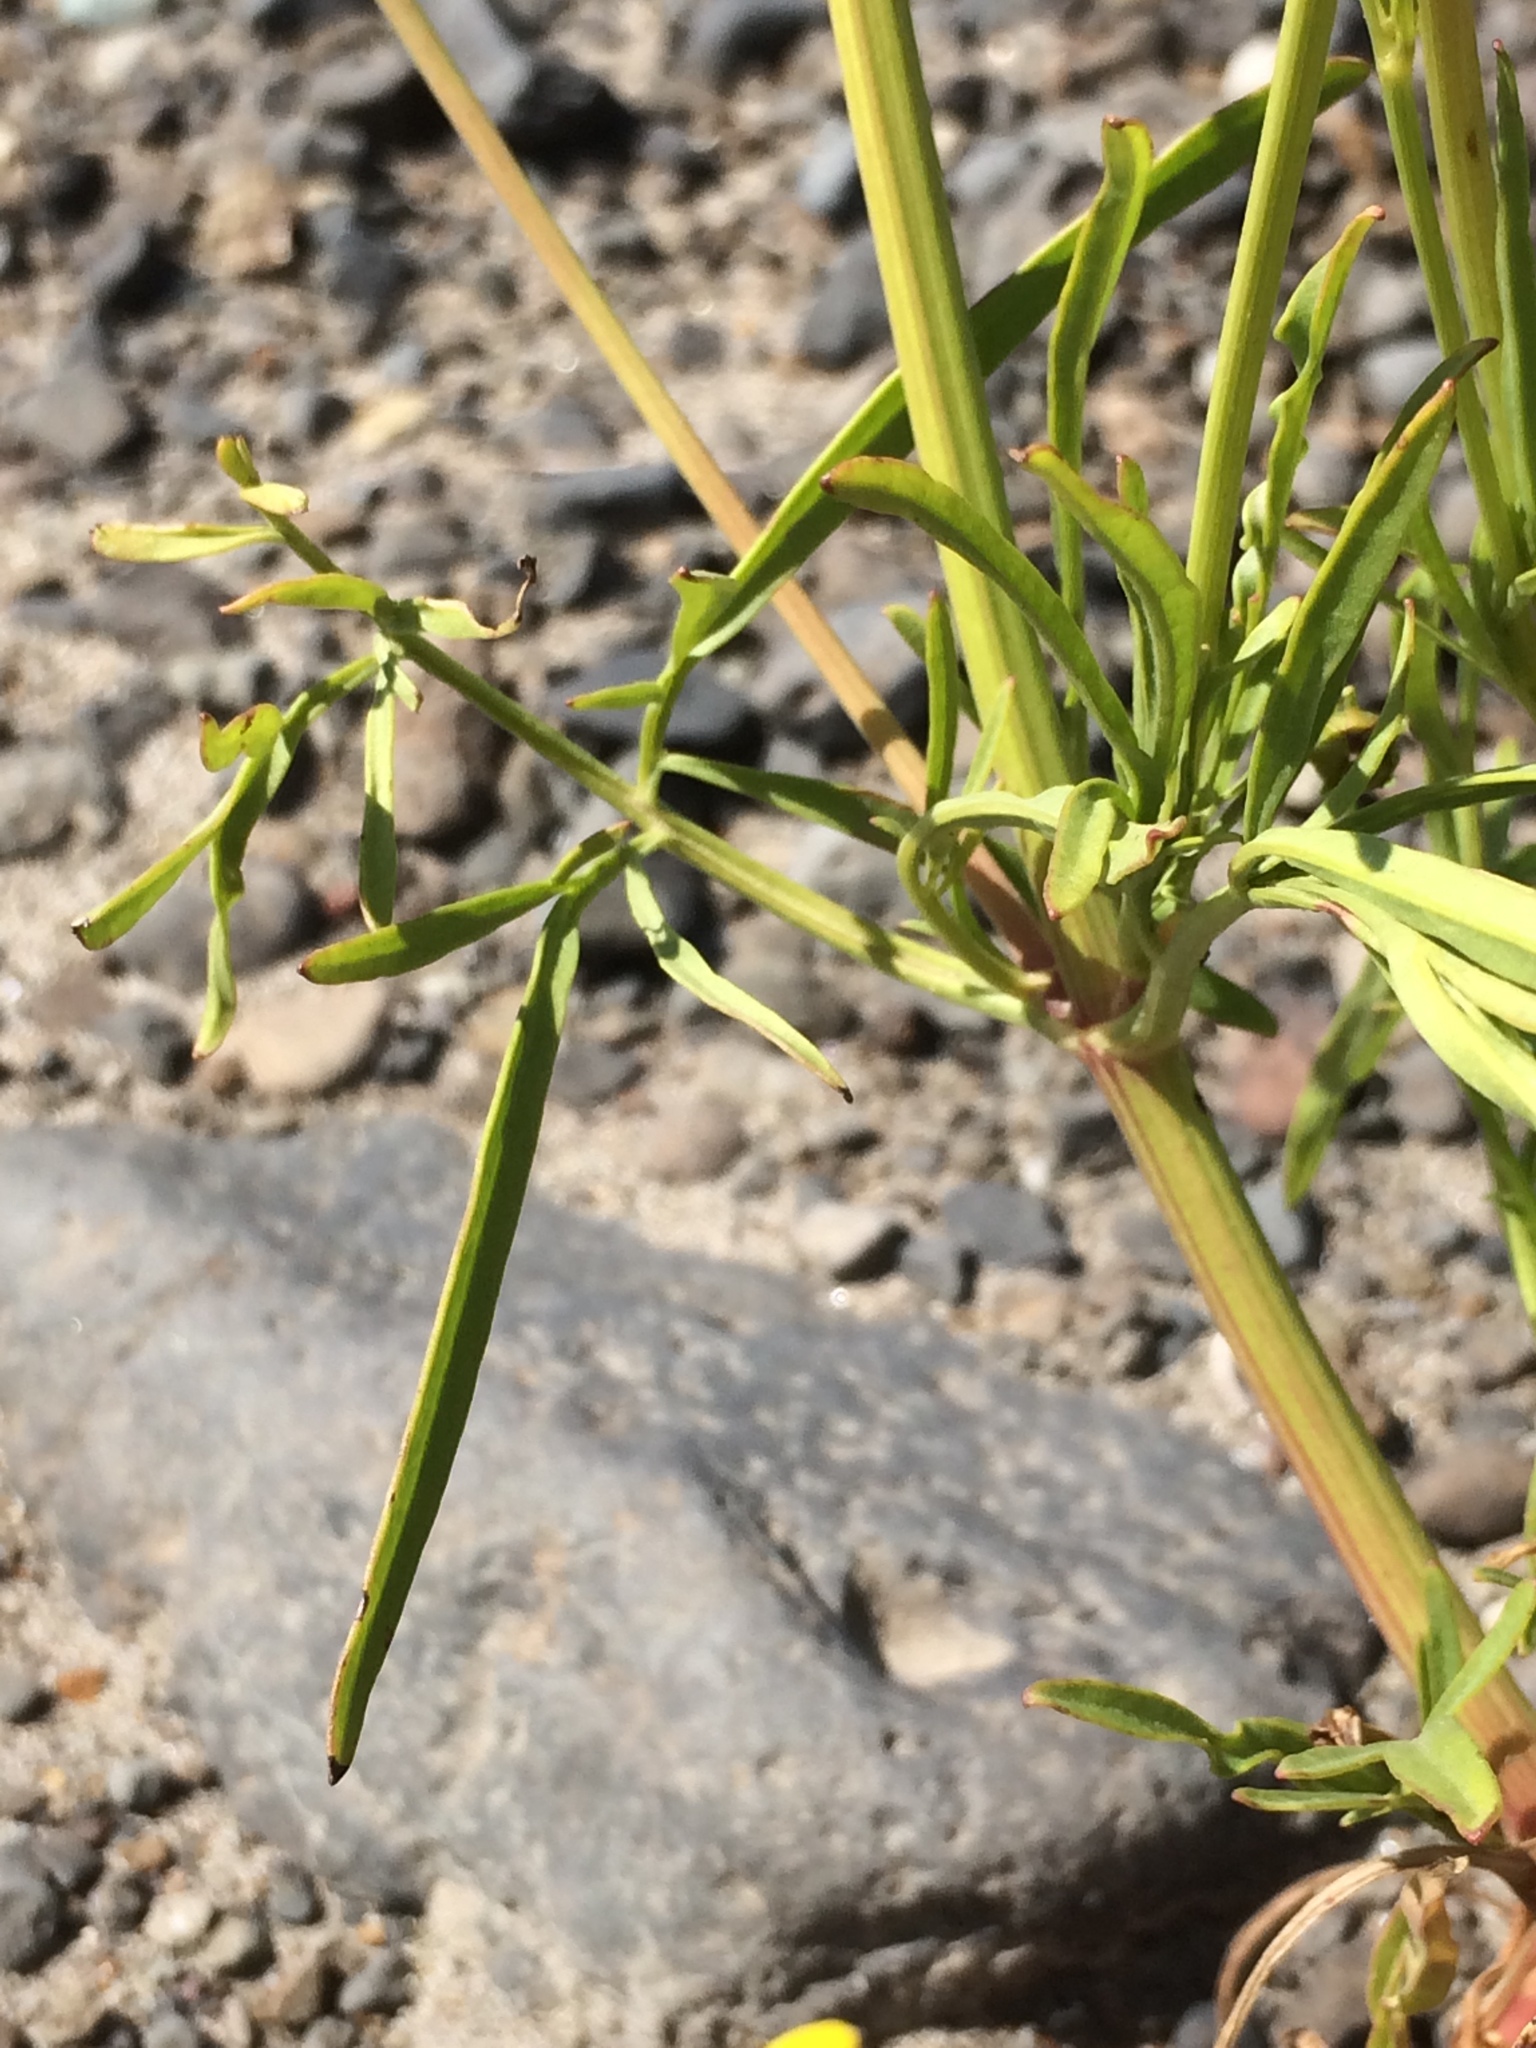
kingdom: Plantae
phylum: Tracheophyta
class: Magnoliopsida
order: Asterales
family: Asteraceae
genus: Coreopsis
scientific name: Coreopsis tinctoria
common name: Garden tickseed
